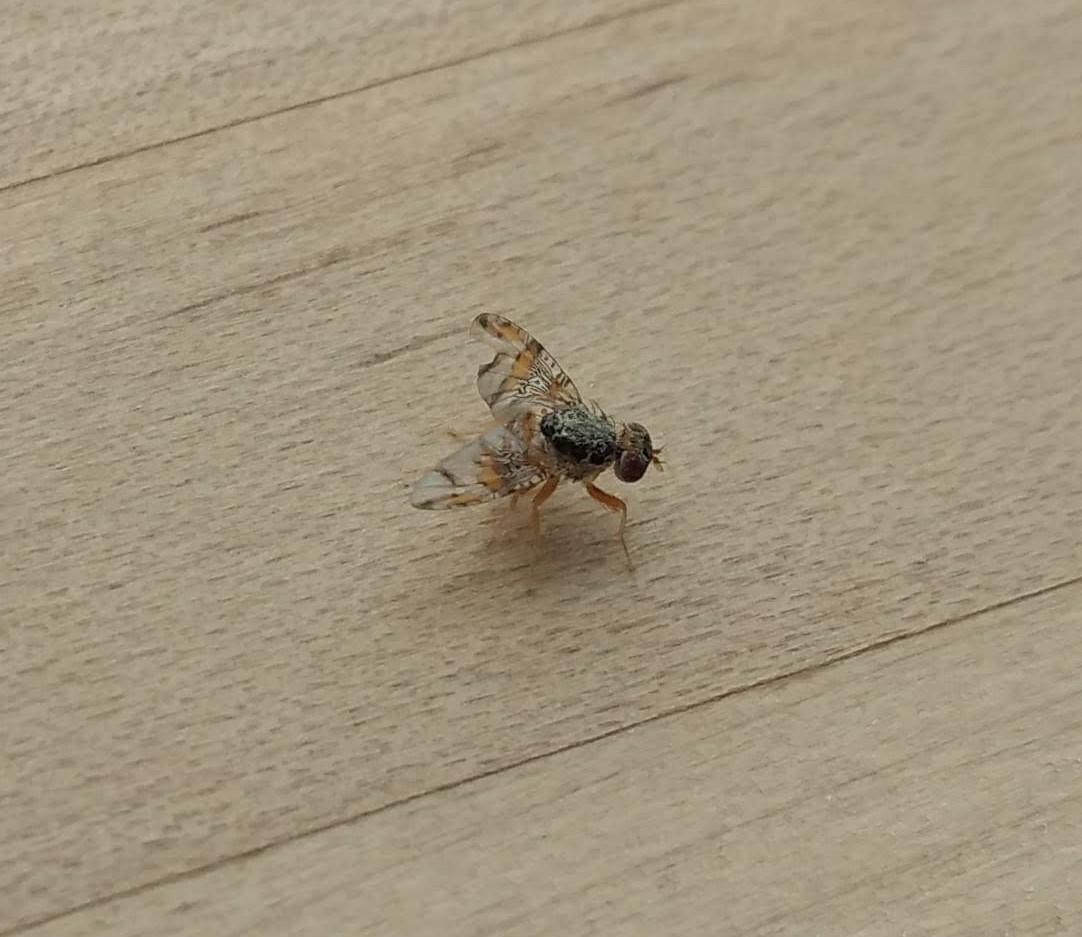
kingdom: Animalia
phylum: Arthropoda
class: Insecta
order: Diptera
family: Tephritidae
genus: Ceratitis
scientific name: Ceratitis capitata
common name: Mediterranean fruit fly
